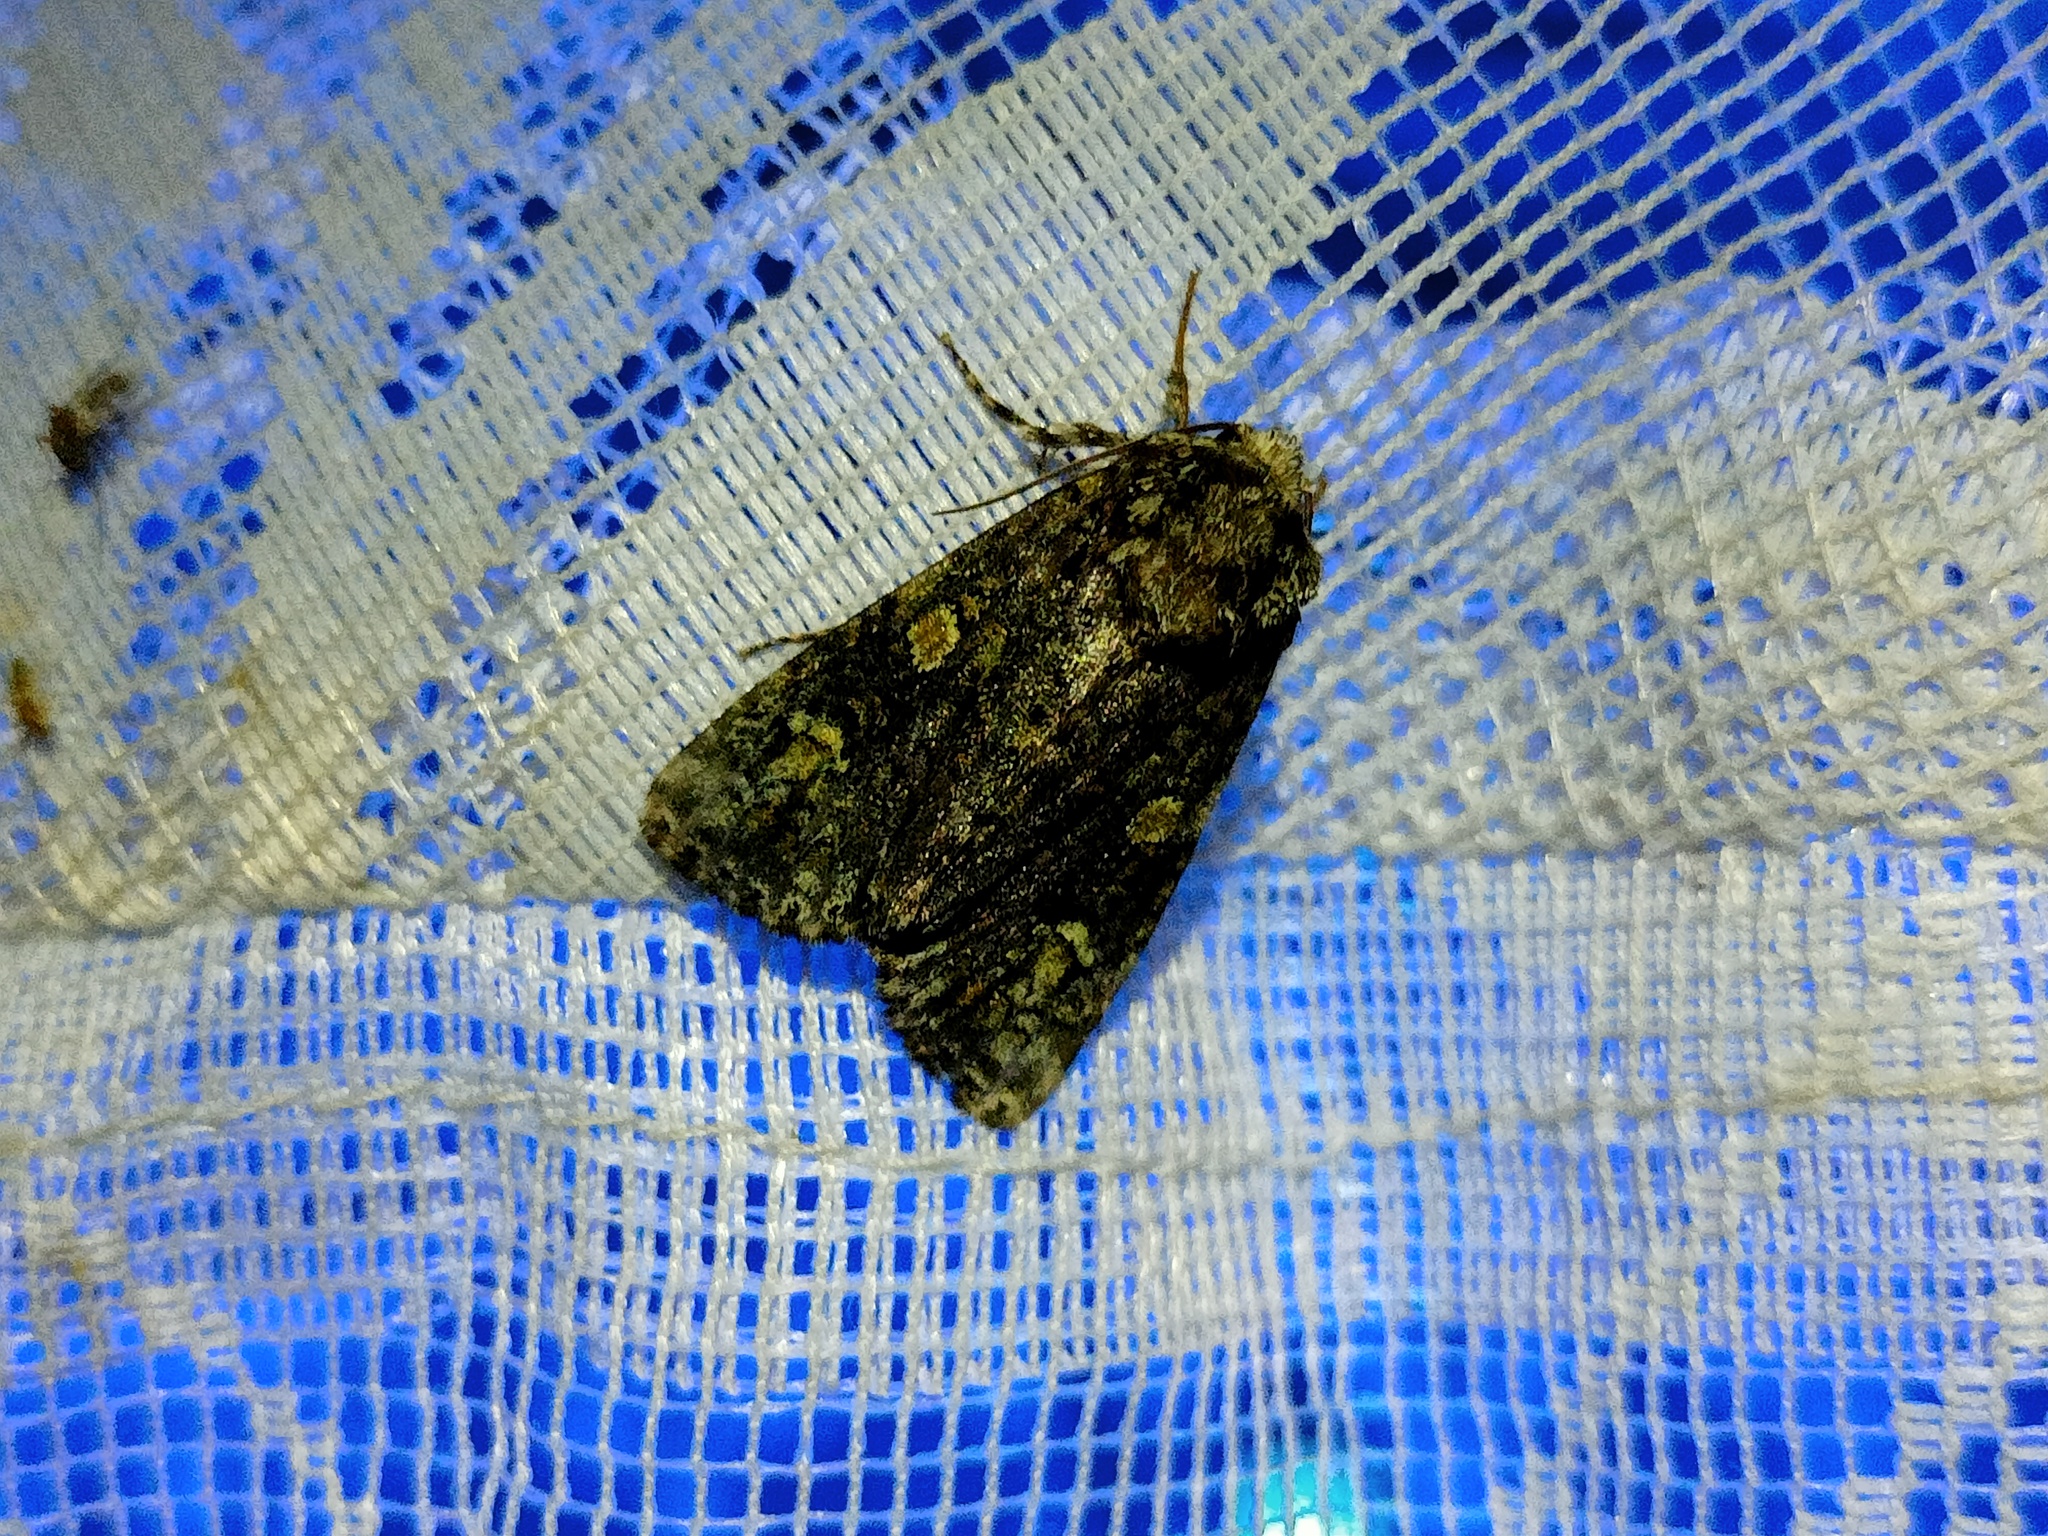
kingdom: Animalia
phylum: Arthropoda
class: Insecta
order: Lepidoptera
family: Noctuidae
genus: Craniophora
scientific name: Craniophora ligustri
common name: Coronet
